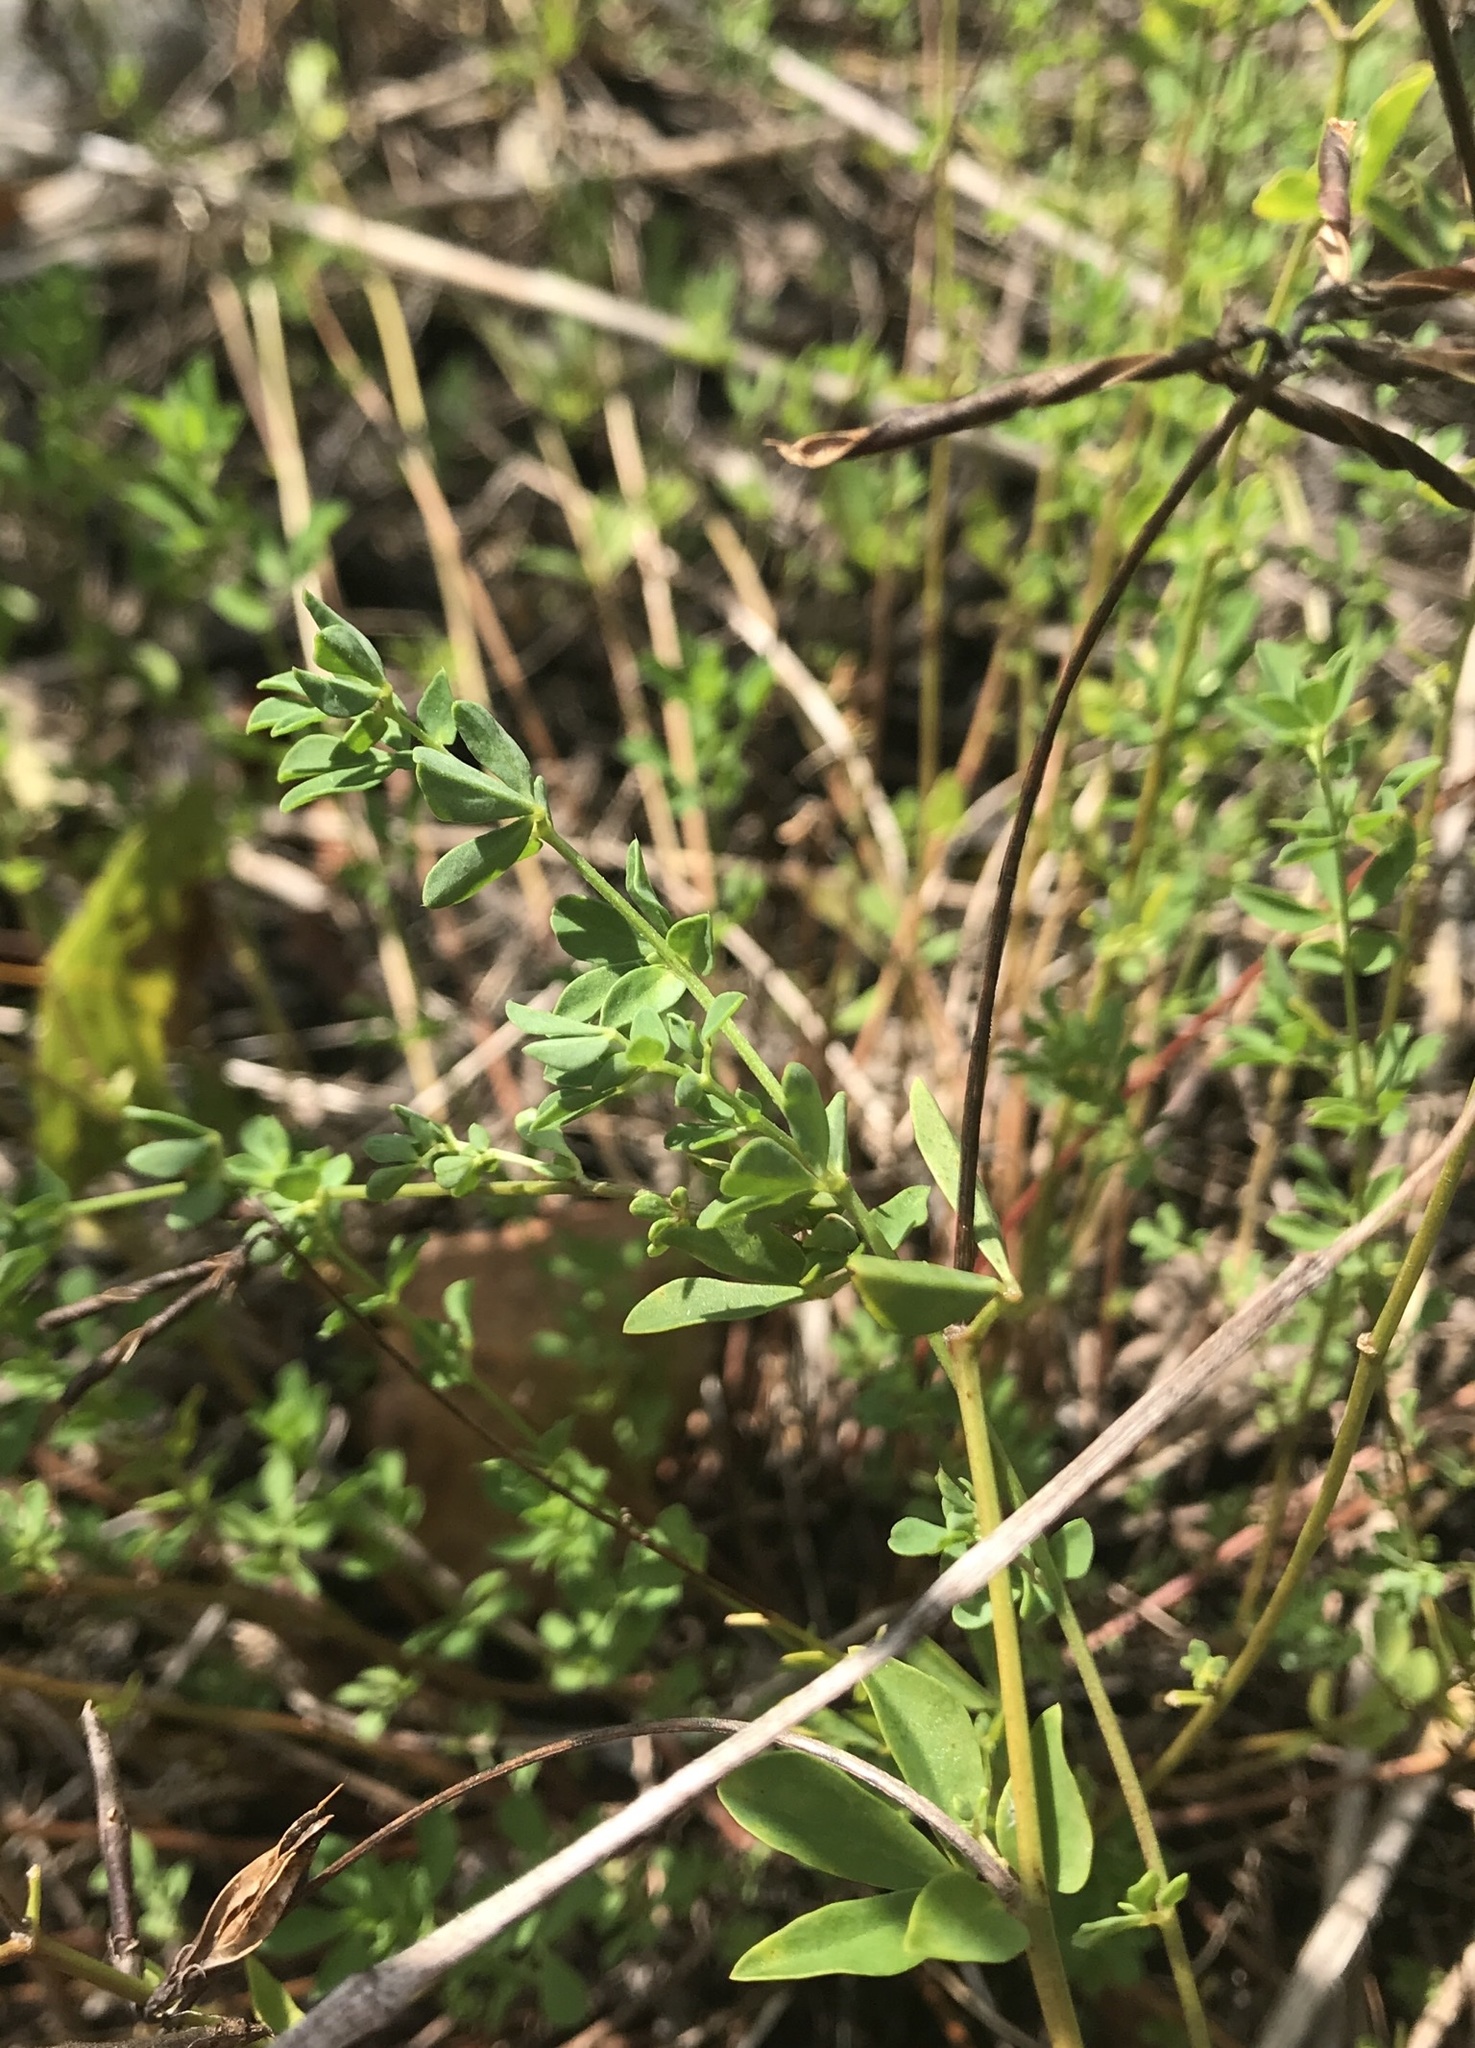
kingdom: Plantae
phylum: Tracheophyta
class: Magnoliopsida
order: Fabales
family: Fabaceae
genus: Lotus
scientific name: Lotus corniculatus
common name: Common bird's-foot-trefoil
